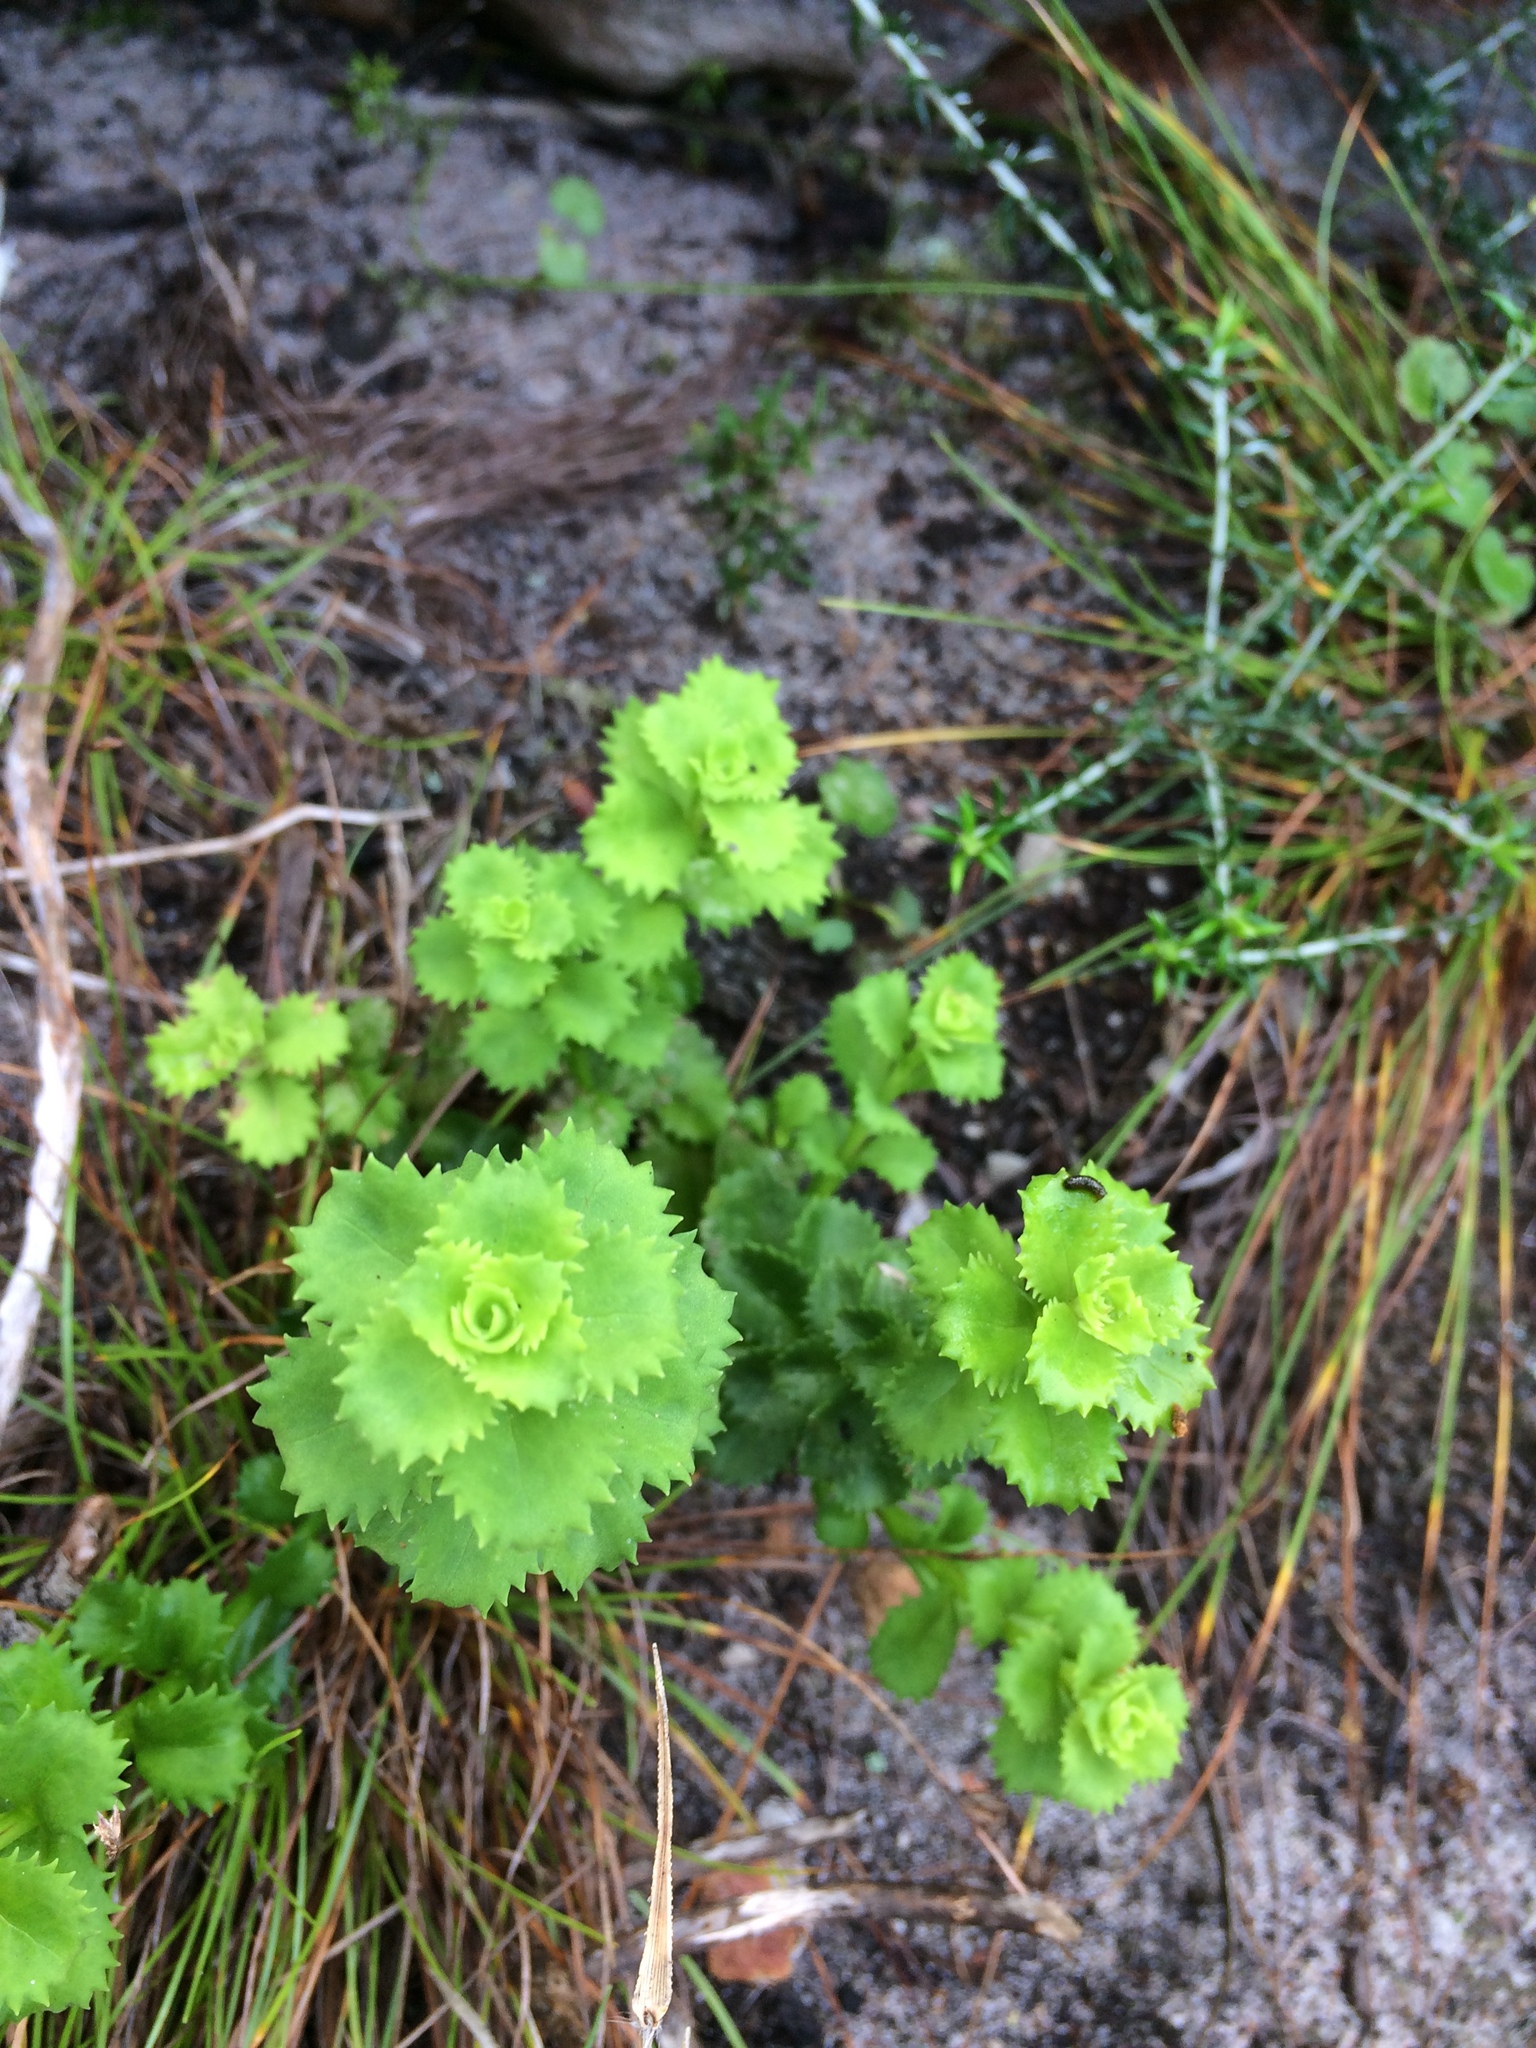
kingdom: Plantae
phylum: Tracheophyta
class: Magnoliopsida
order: Asterales
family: Asteraceae
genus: Osmitopsis
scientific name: Osmitopsis dentata
